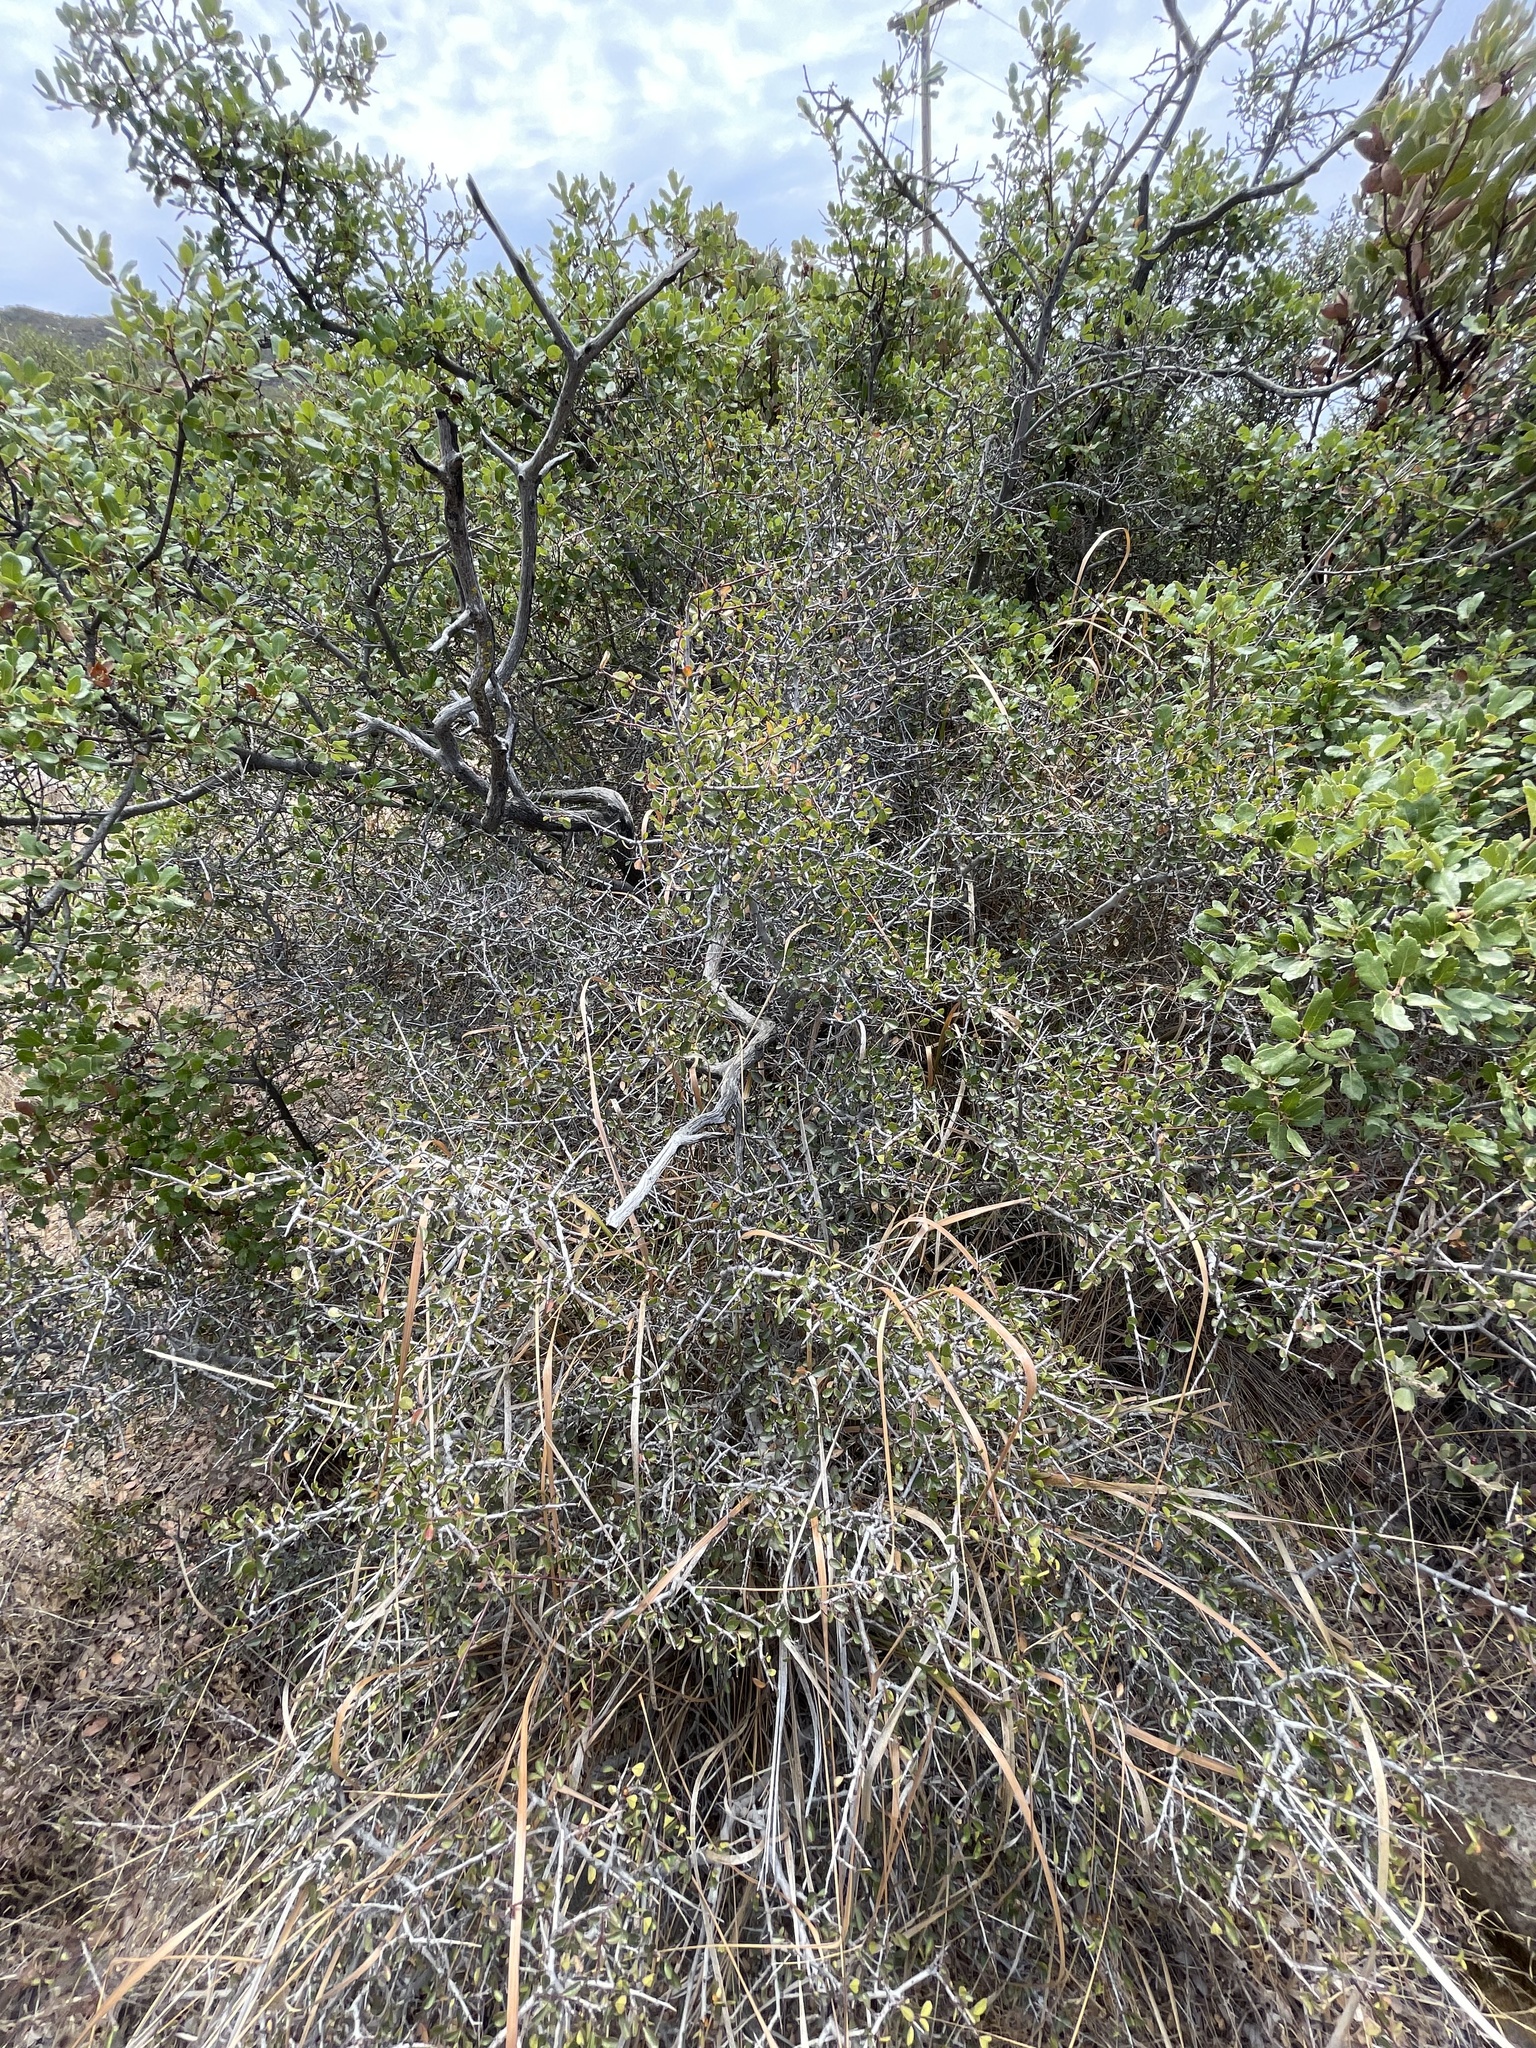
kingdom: Plantae
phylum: Tracheophyta
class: Magnoliopsida
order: Rosales
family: Rhamnaceae
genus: Endotropis
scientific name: Endotropis crocea
